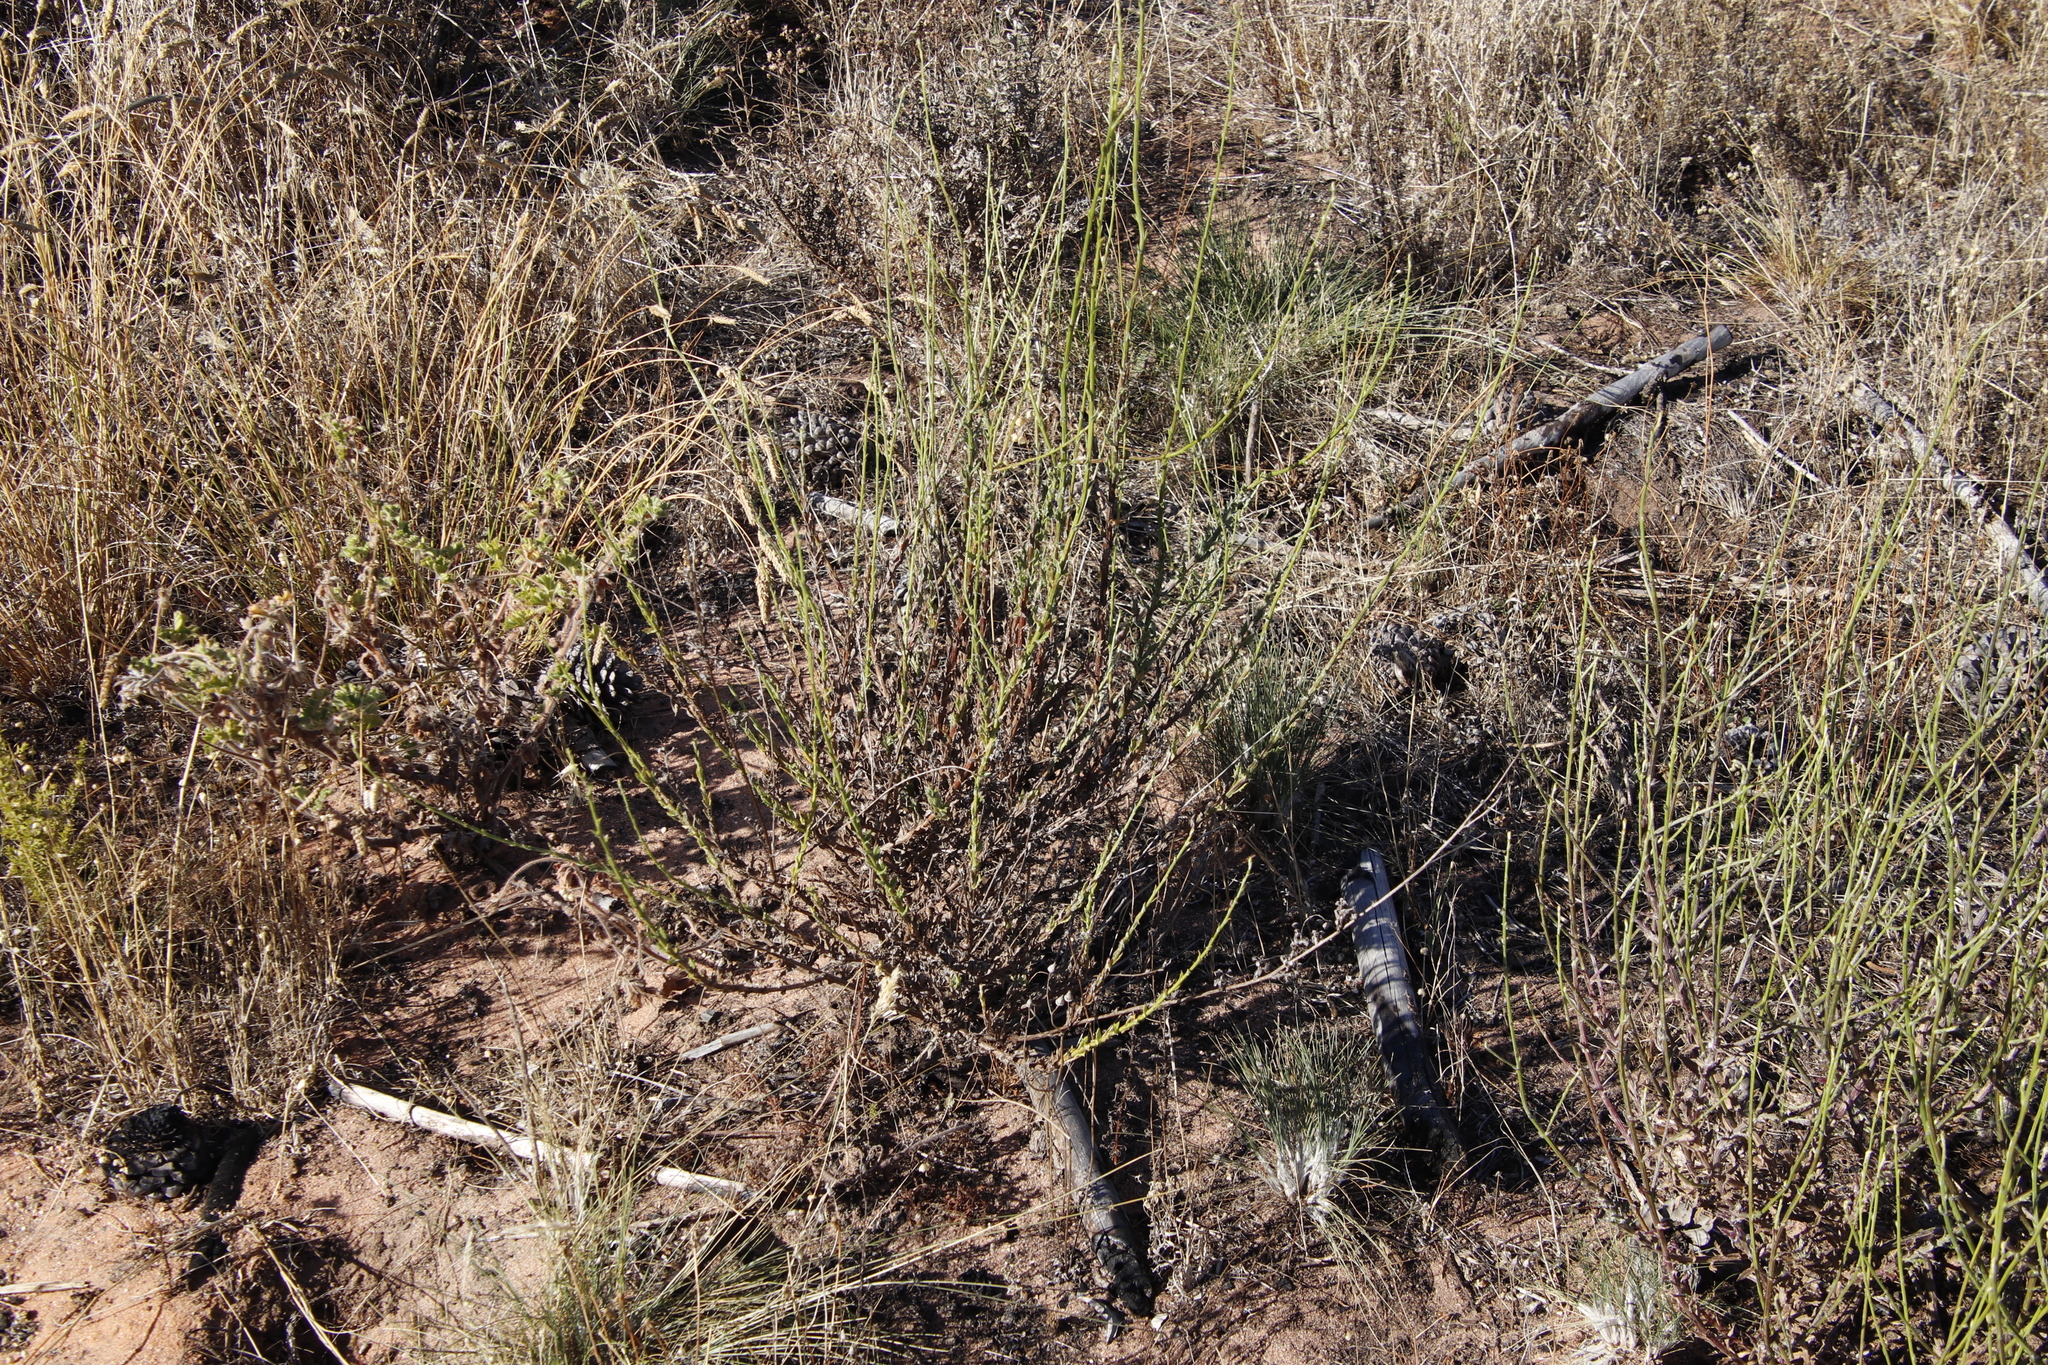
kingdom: Plantae
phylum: Tracheophyta
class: Magnoliopsida
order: Asterales
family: Asteraceae
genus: Senecio
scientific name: Senecio pubigerus
